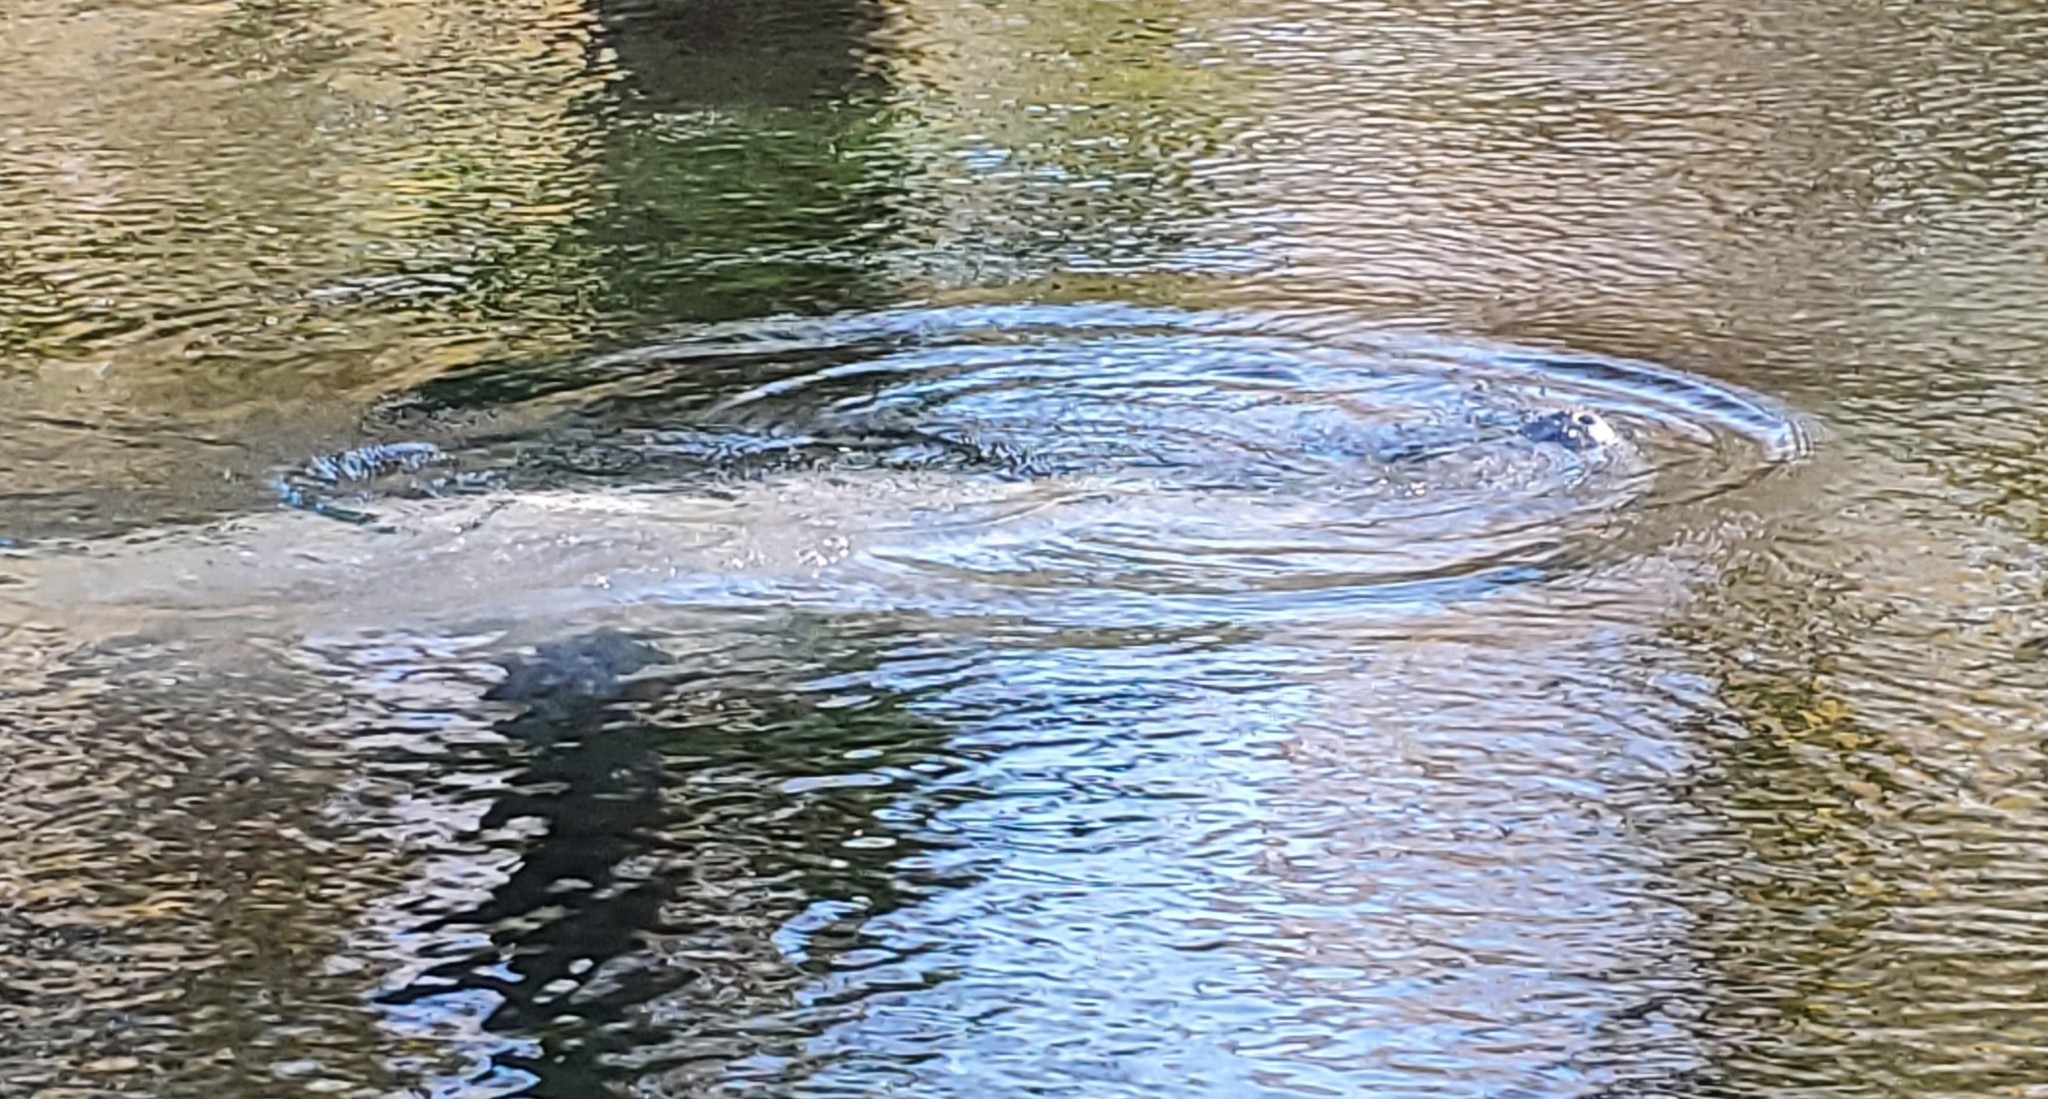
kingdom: Animalia
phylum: Chordata
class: Mammalia
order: Sirenia
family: Trichechidae
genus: Trichechus
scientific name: Trichechus manatus
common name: West indian manatee
